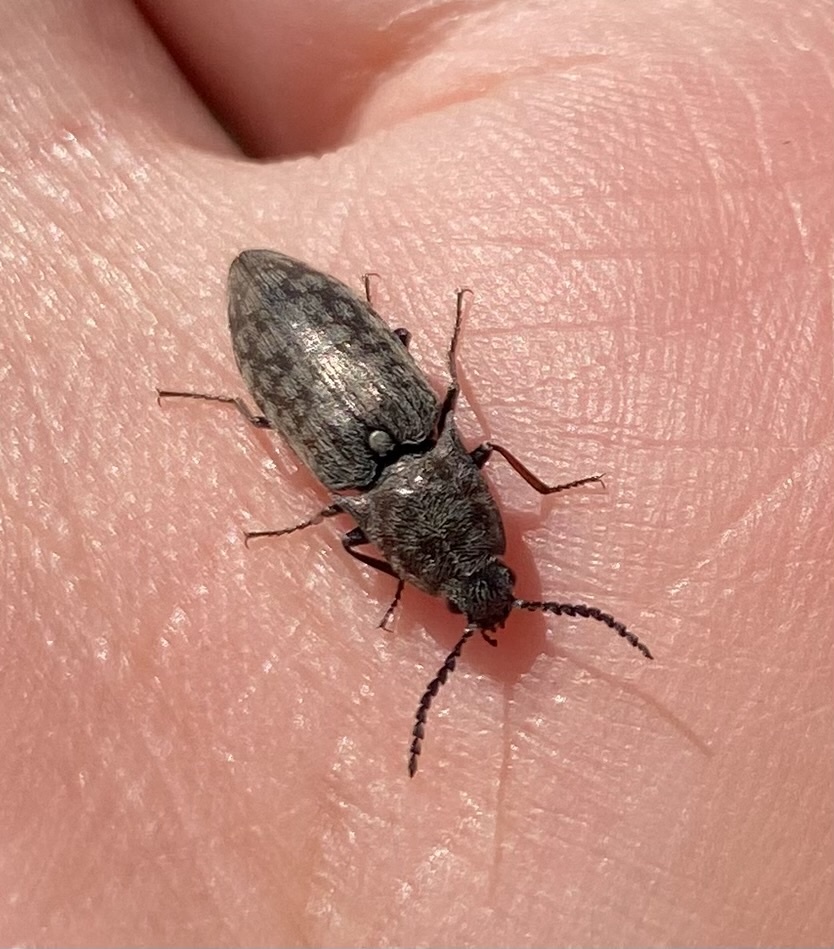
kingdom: Animalia
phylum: Arthropoda
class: Insecta
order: Coleoptera
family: Elateridae
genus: Actenicerus
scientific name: Actenicerus sjaelandicus
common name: Marsh click beetle
